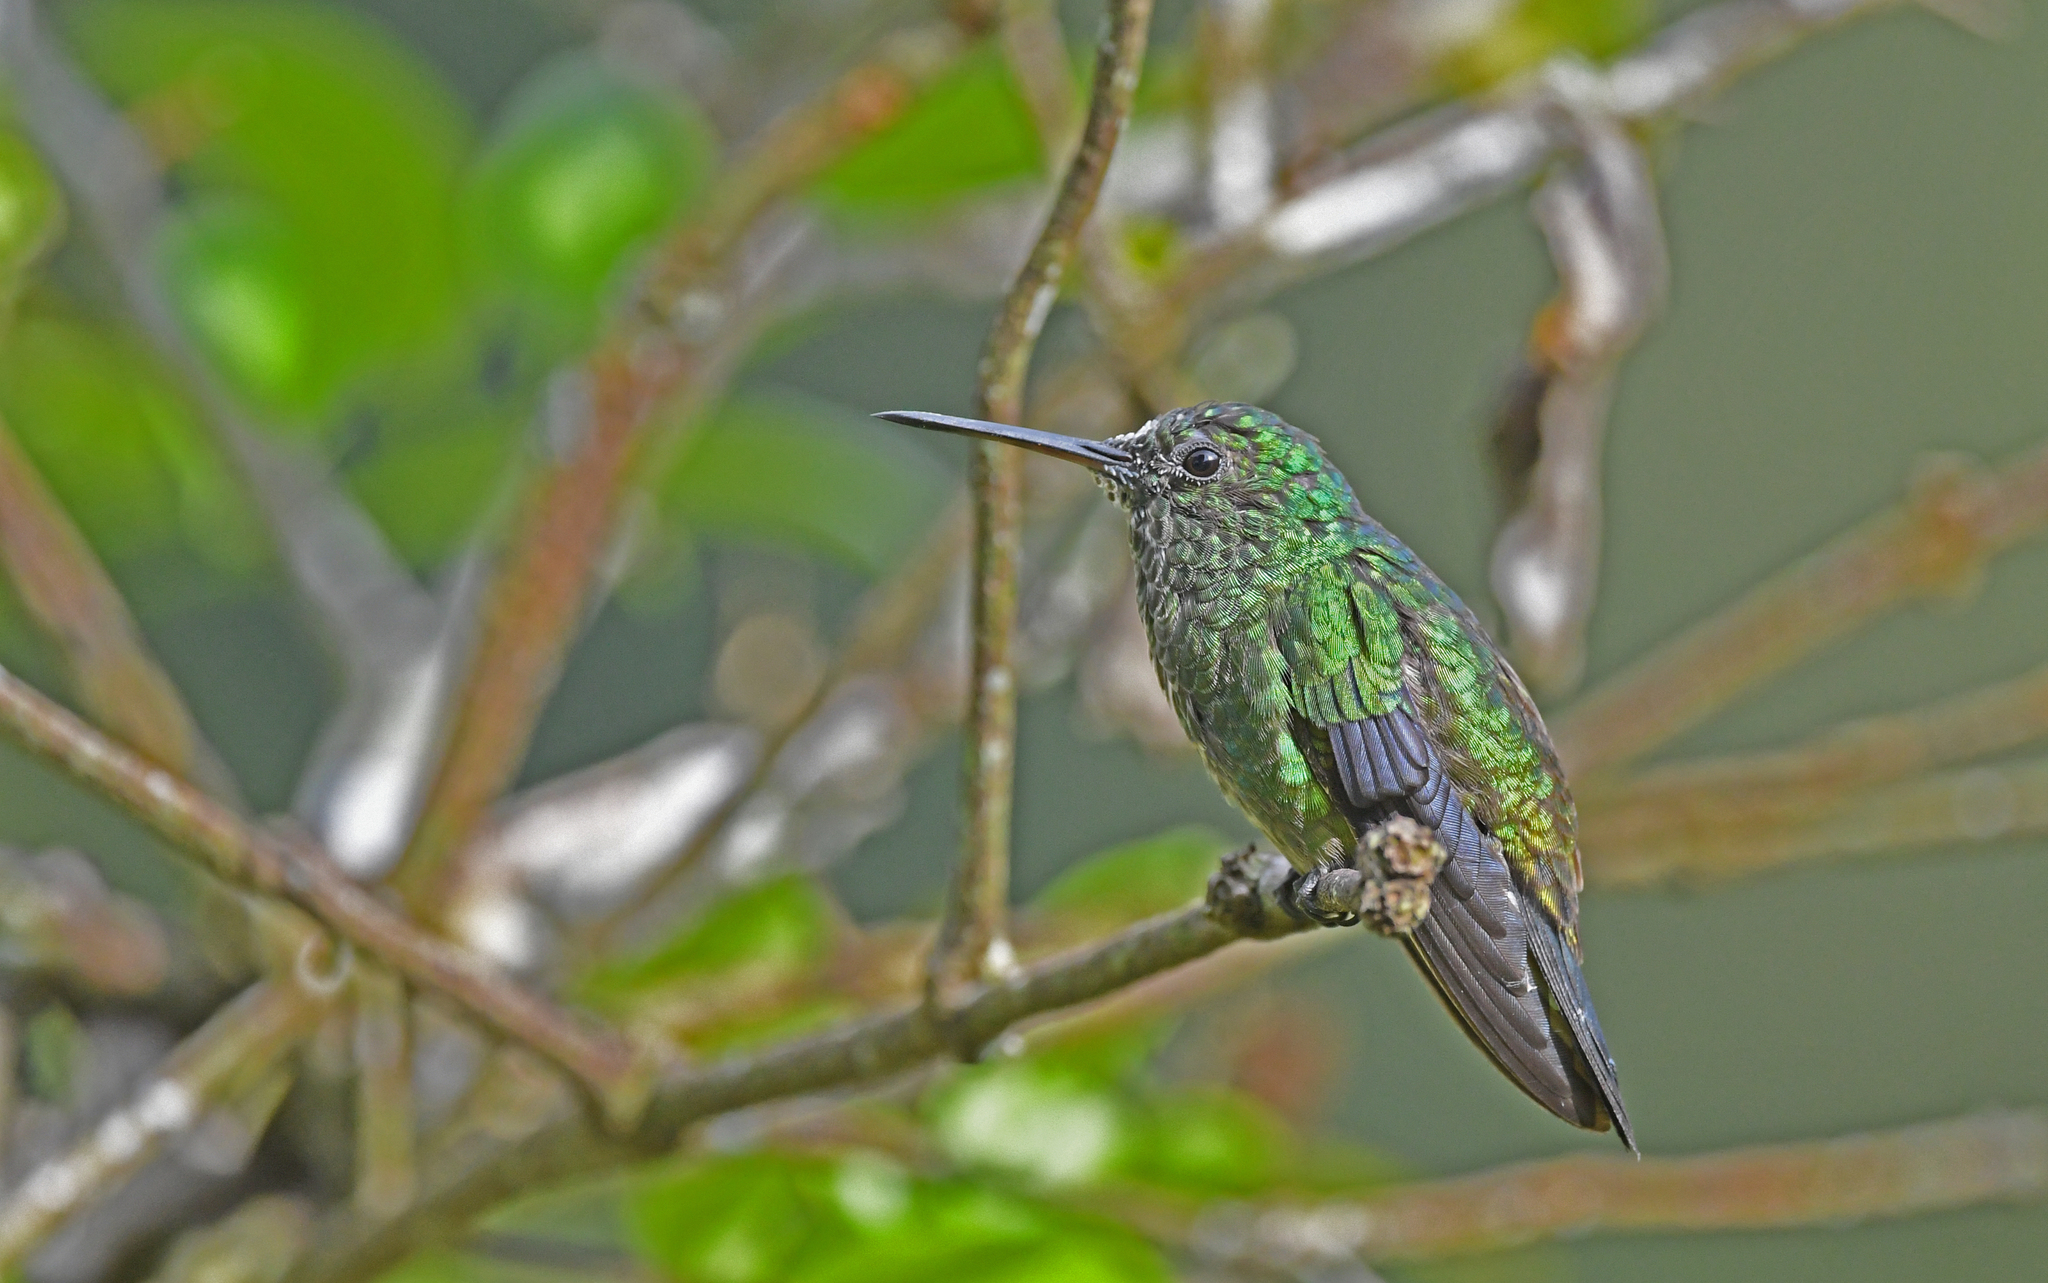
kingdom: Animalia
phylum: Chordata
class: Aves
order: Apodiformes
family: Trochilidae
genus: Saucerottia
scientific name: Saucerottia saucerottei
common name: Steely-vented hummingbird
